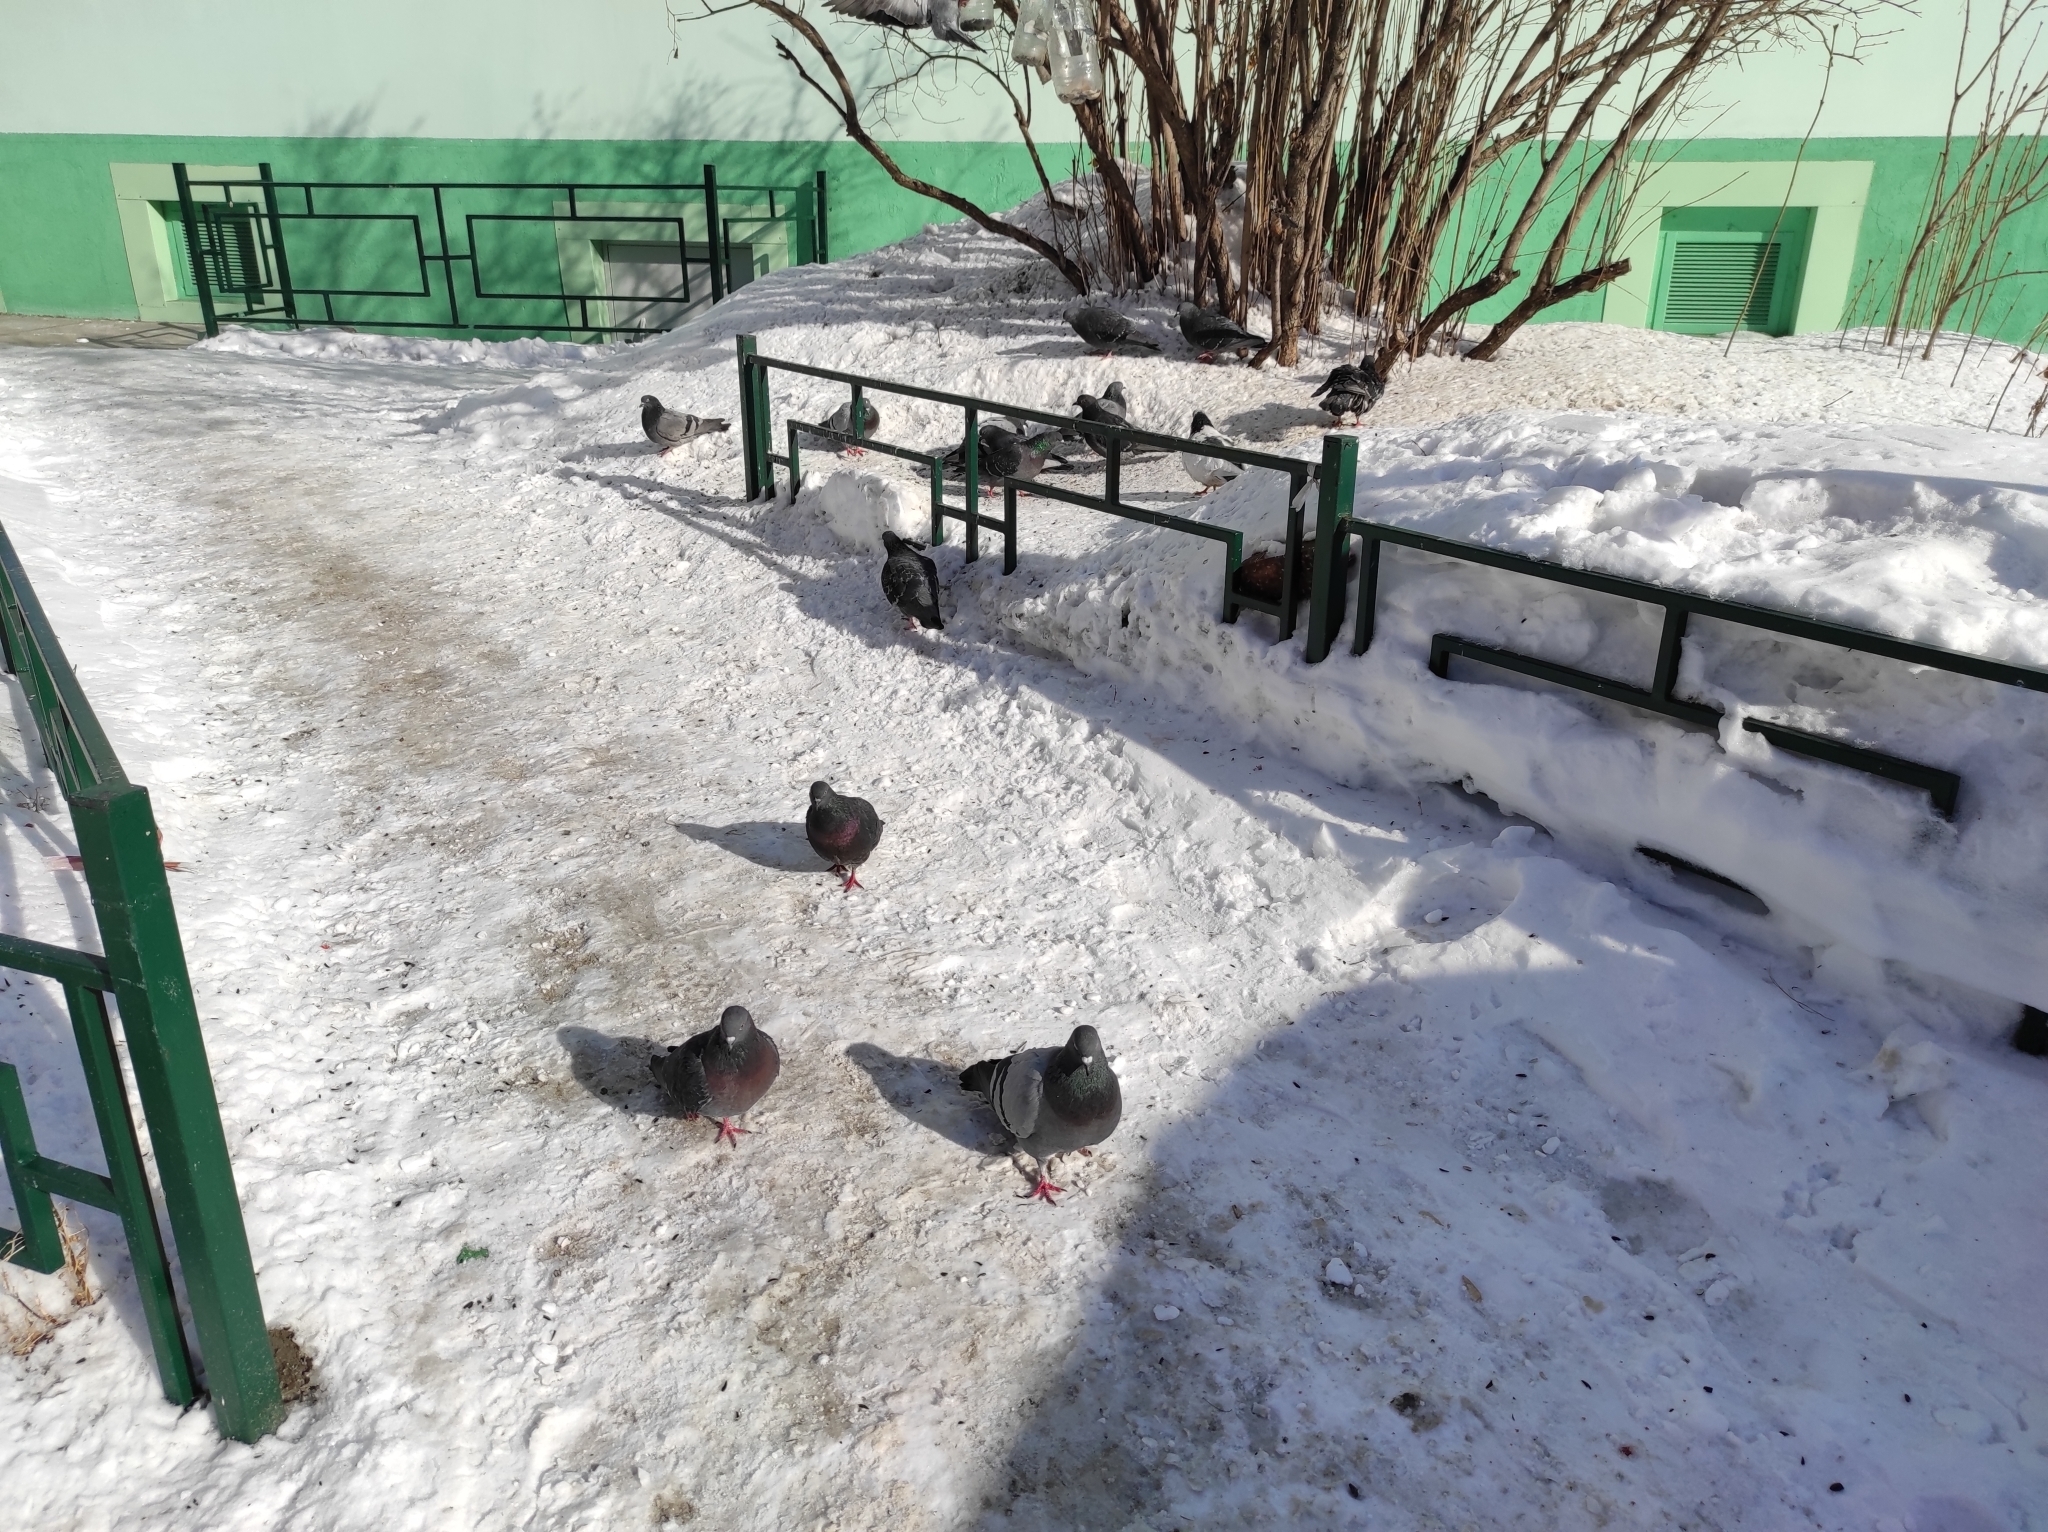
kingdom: Animalia
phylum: Chordata
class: Aves
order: Columbiformes
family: Columbidae
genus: Columba
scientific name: Columba livia
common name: Rock pigeon
